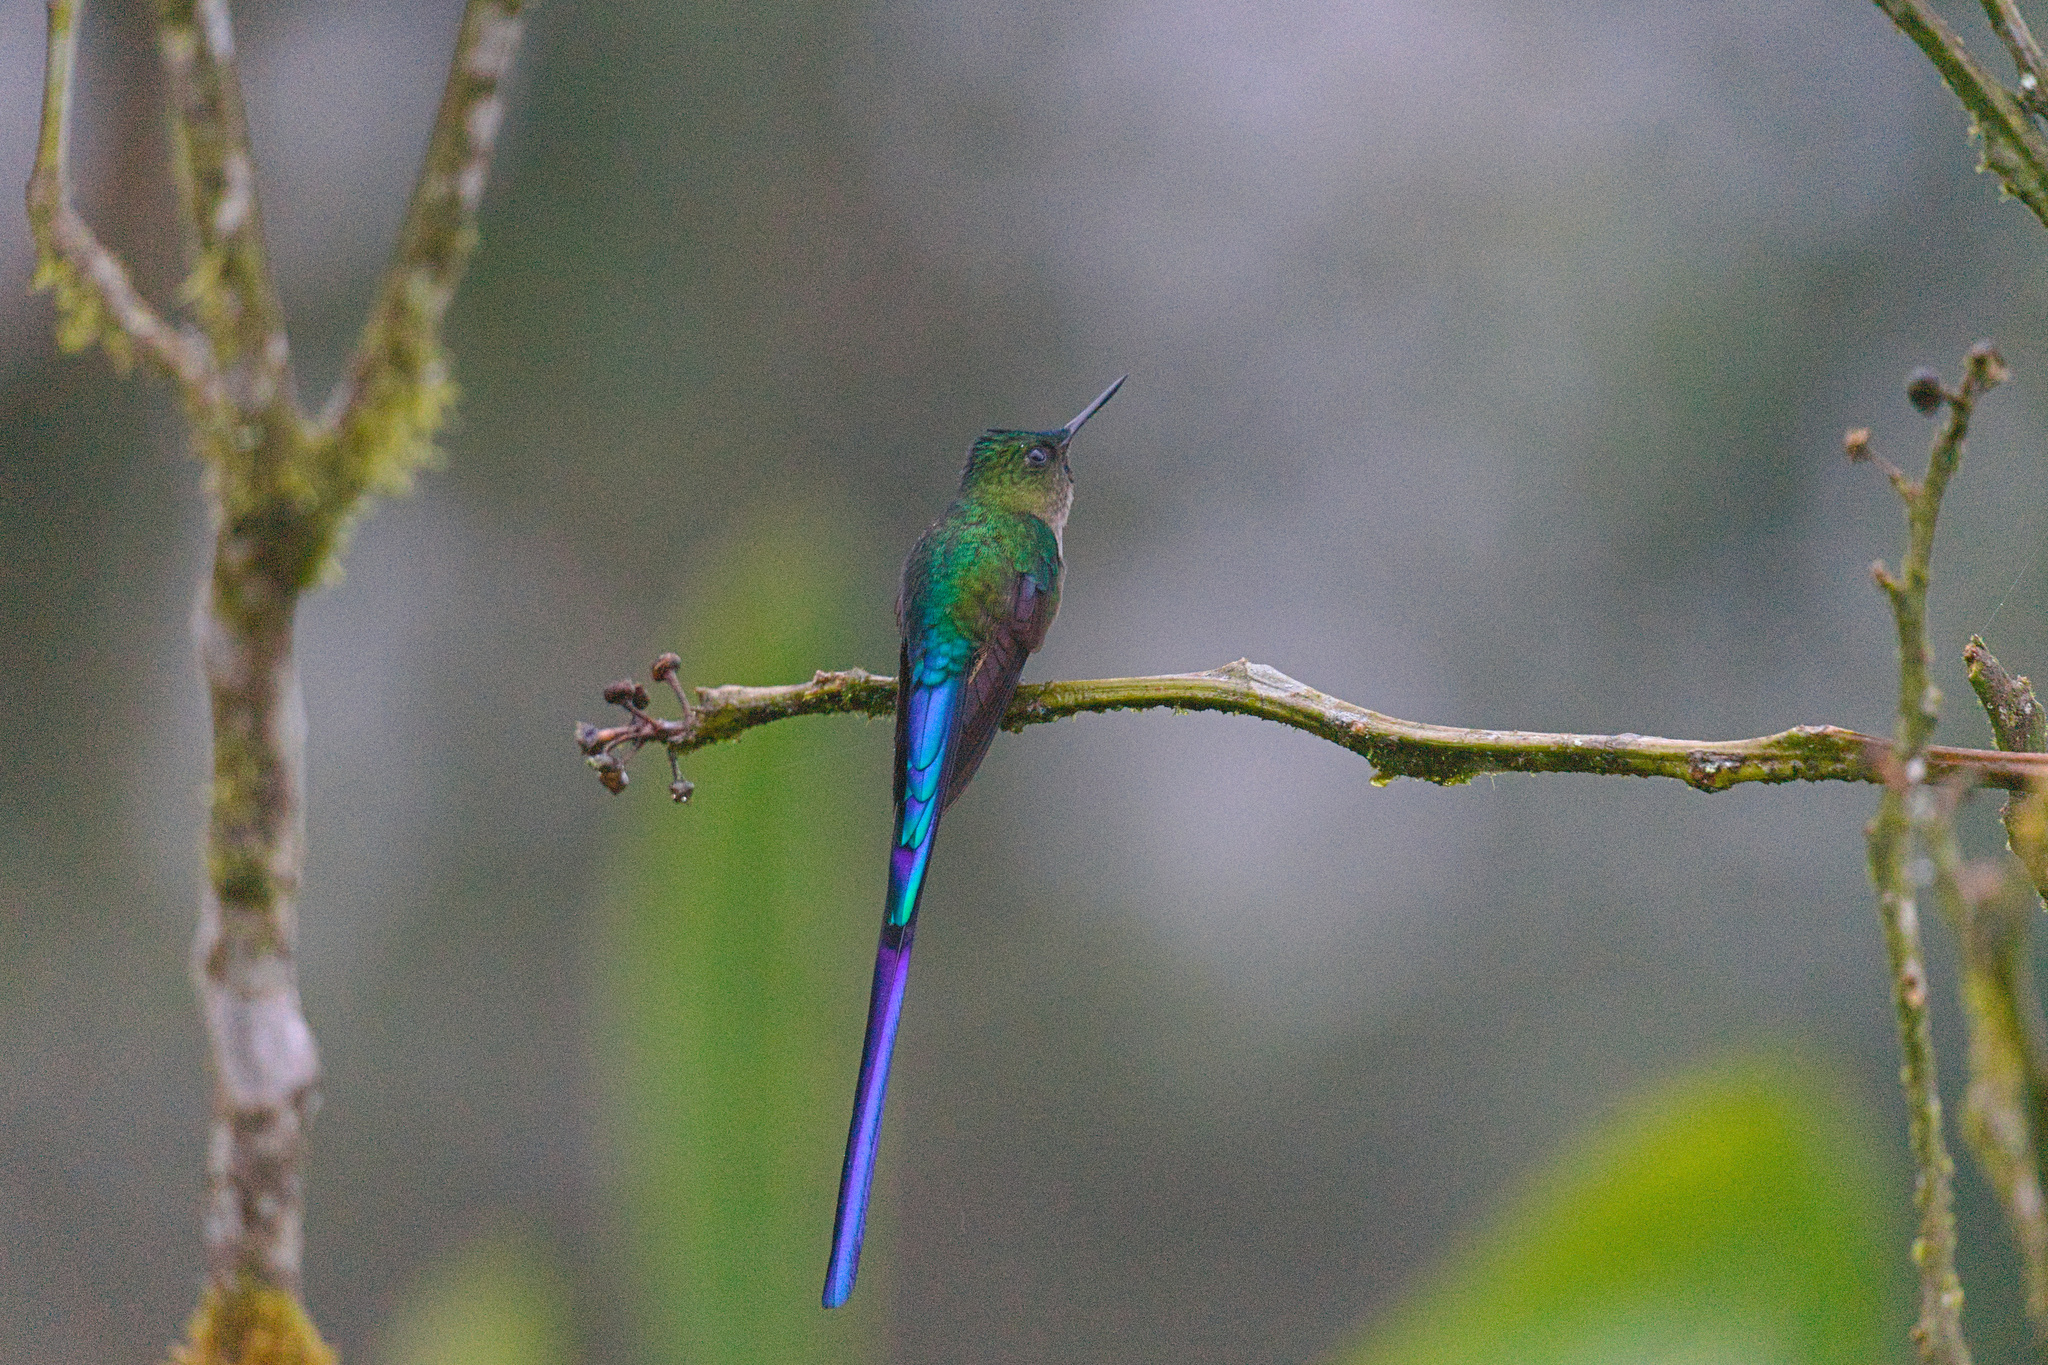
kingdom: Animalia
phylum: Chordata
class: Aves
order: Apodiformes
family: Trochilidae
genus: Aglaiocercus
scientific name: Aglaiocercus coelestis
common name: Violet-tailed sylph
